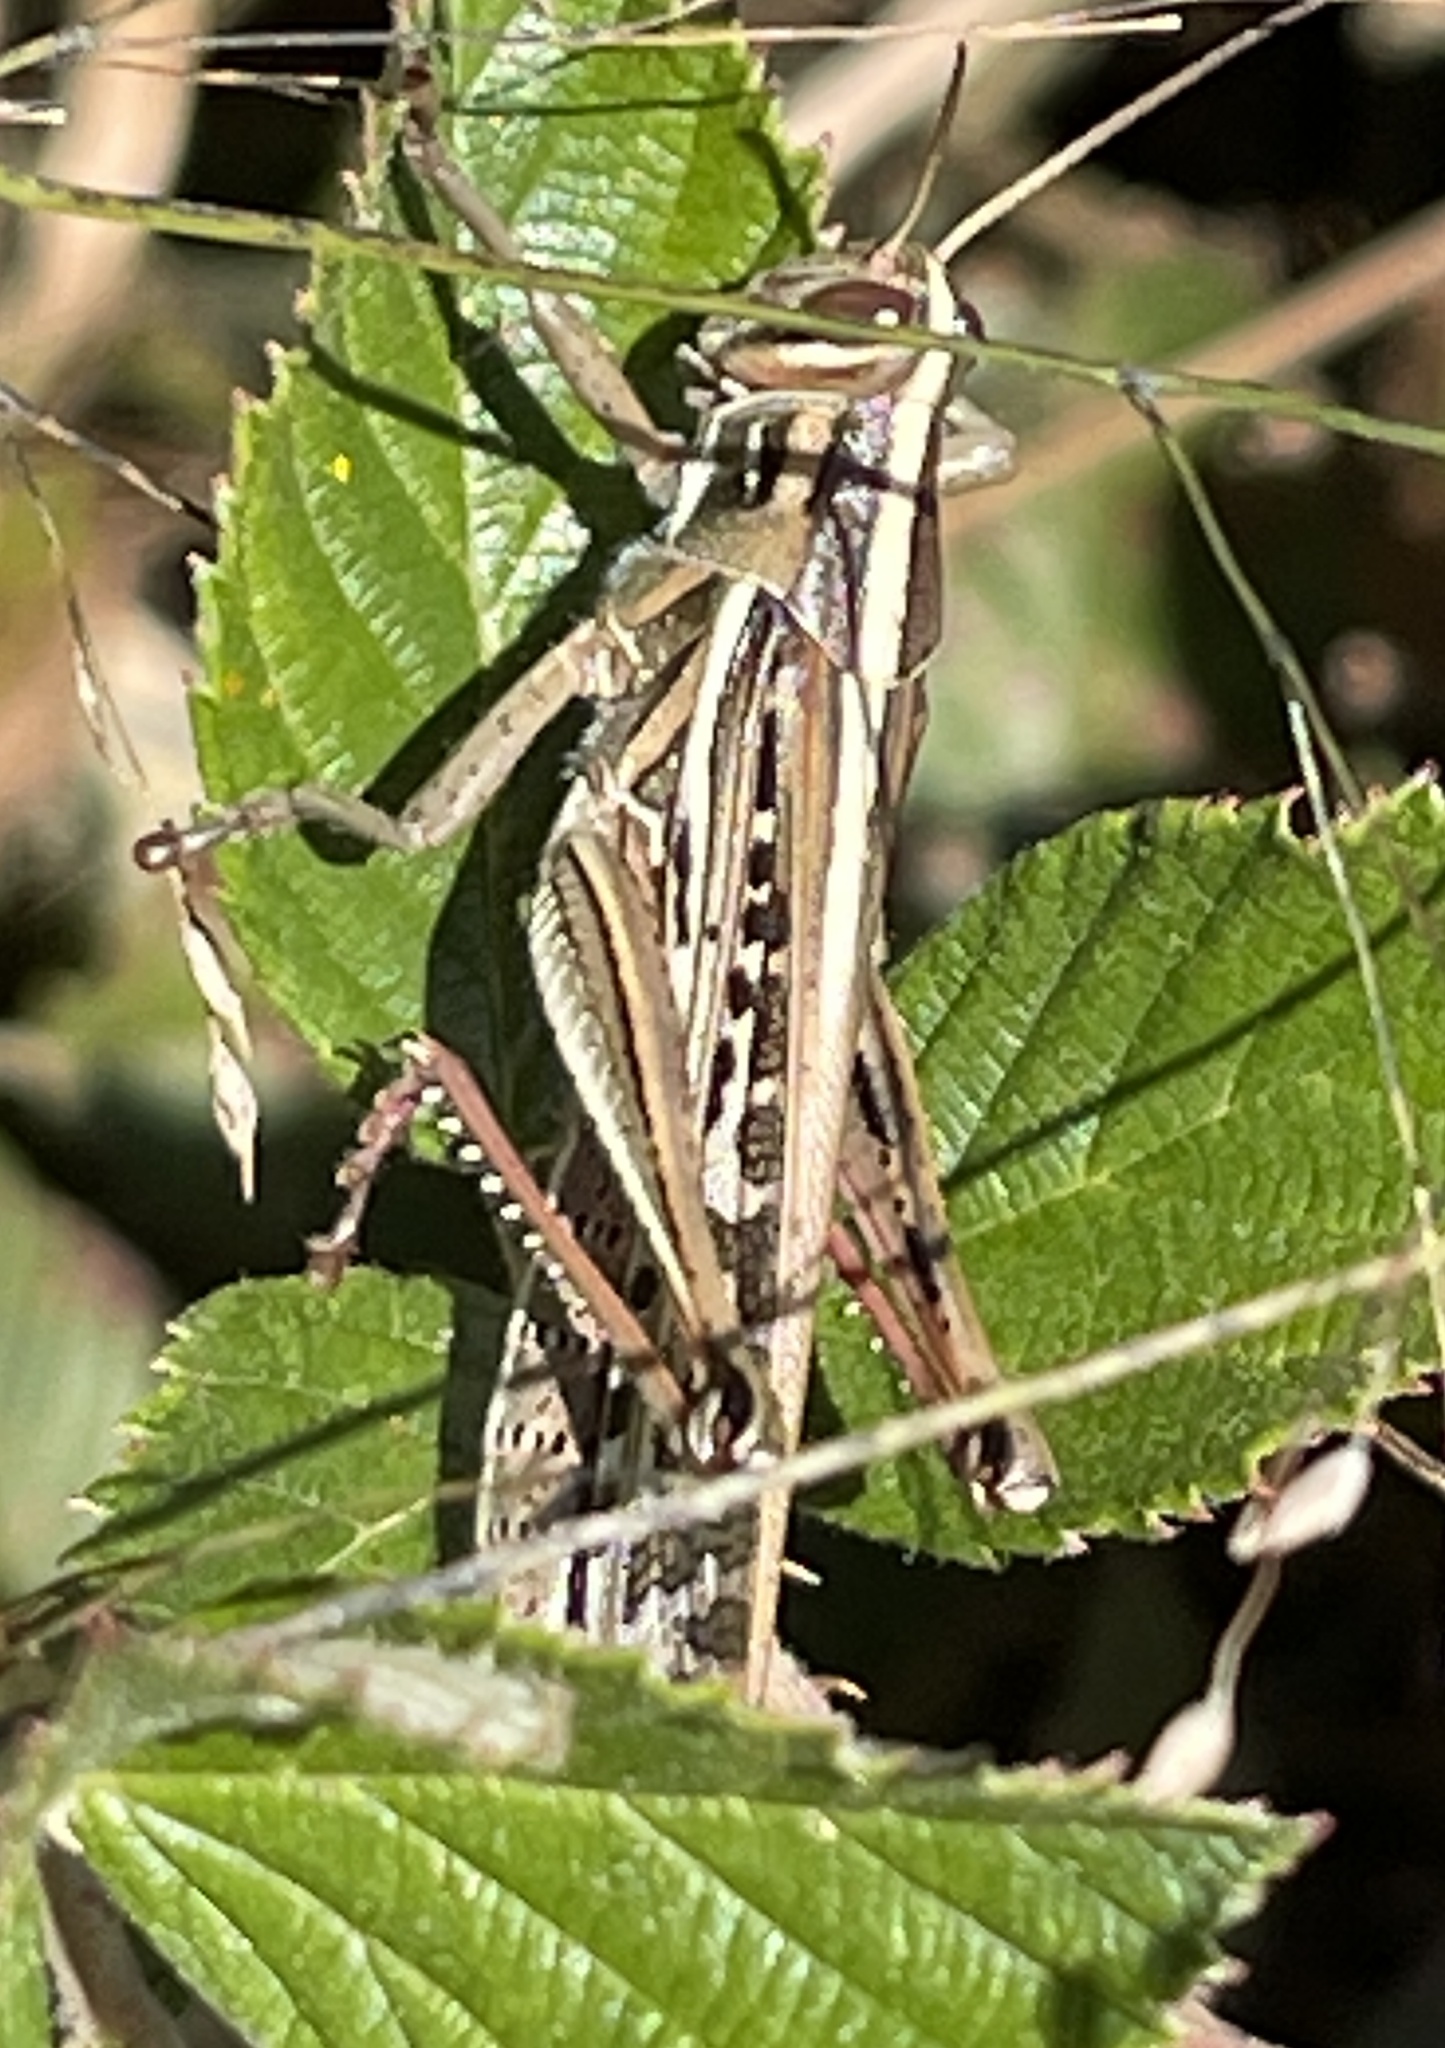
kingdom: Animalia
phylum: Arthropoda
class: Insecta
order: Orthoptera
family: Acrididae
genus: Schistocerca
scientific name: Schistocerca americana
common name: American bird locust
